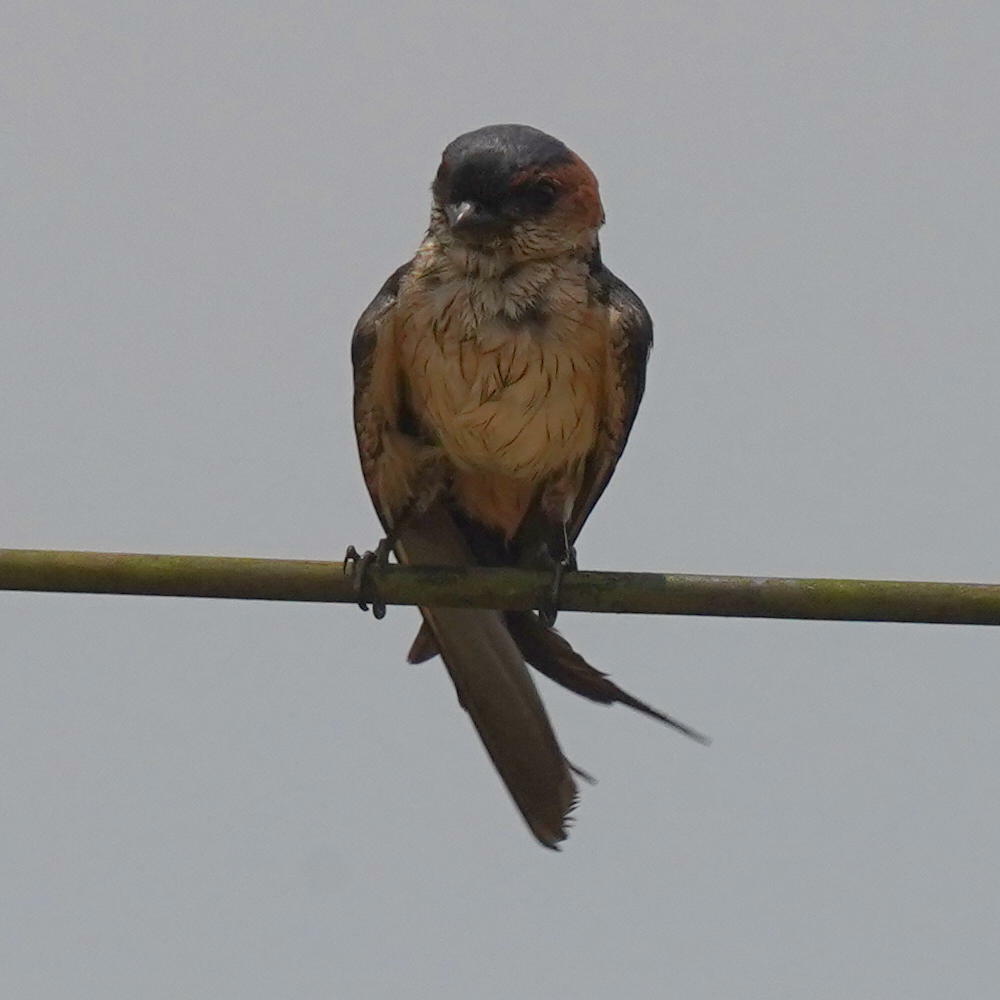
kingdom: Animalia
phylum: Chordata
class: Aves
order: Passeriformes
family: Hirundinidae
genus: Cecropis
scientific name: Cecropis daurica
